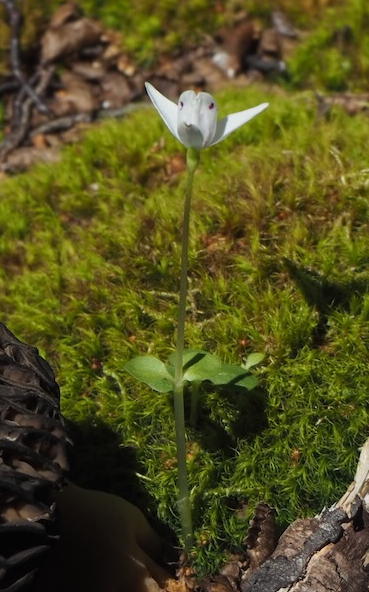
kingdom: Plantae
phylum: Tracheophyta
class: Liliopsida
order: Asparagales
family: Orchidaceae
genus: Codonorchis
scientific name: Codonorchis lessonii
